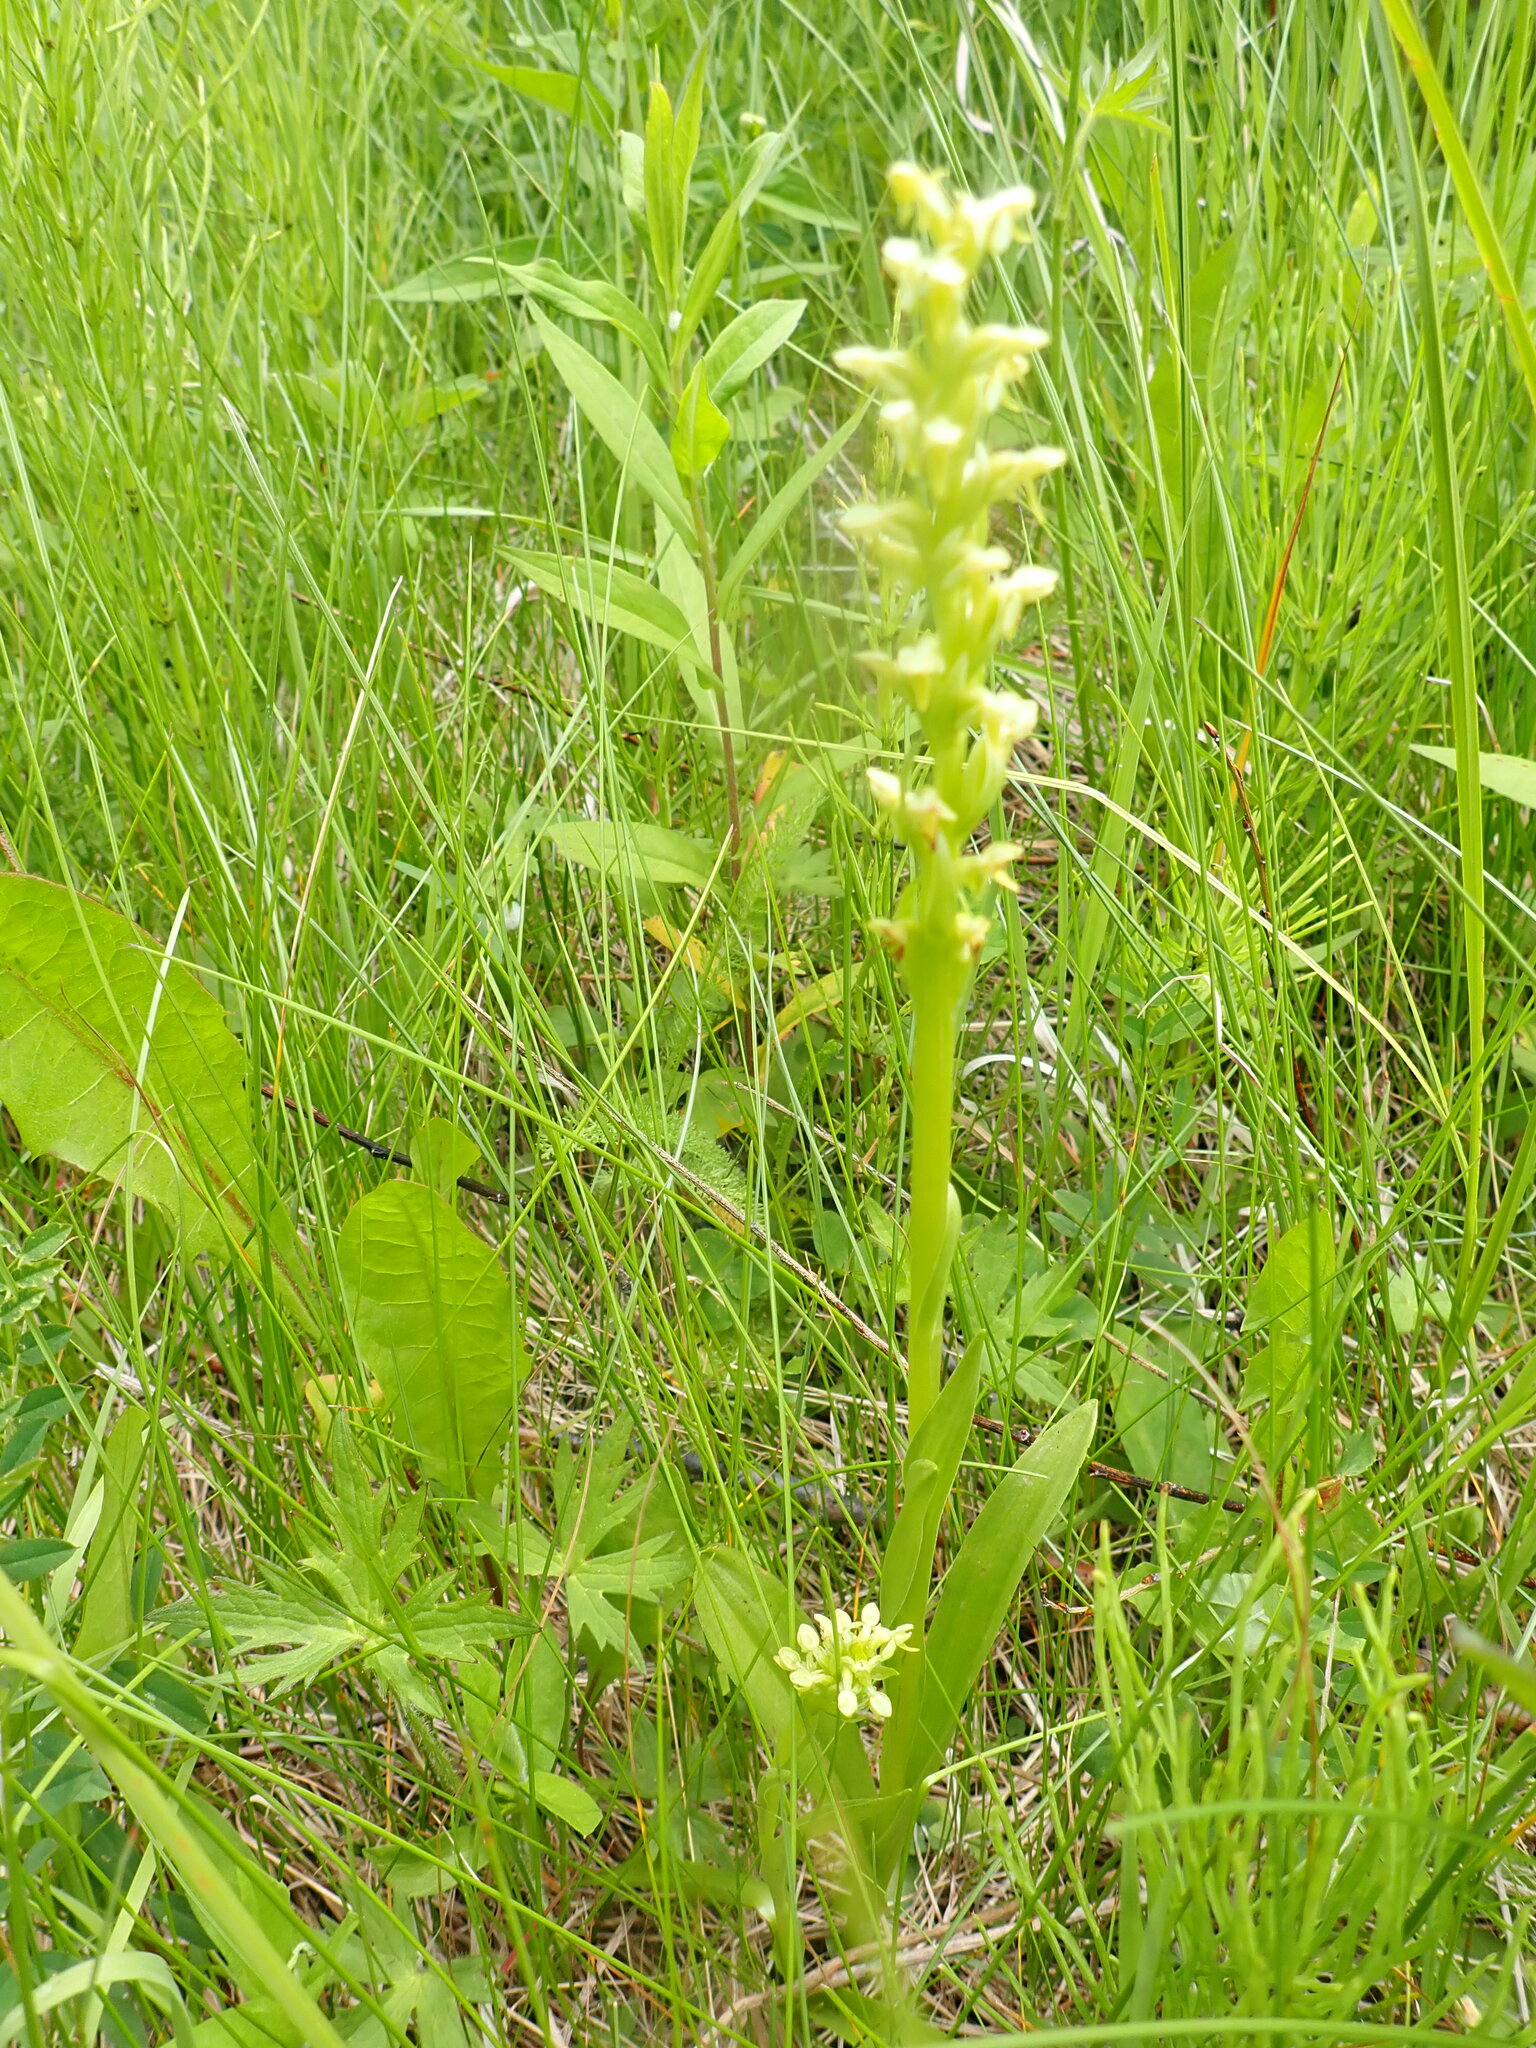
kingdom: Plantae
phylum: Tracheophyta
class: Liliopsida
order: Asparagales
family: Orchidaceae
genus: Platanthera
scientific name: Platanthera aquilonis
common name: Northern green orchid
